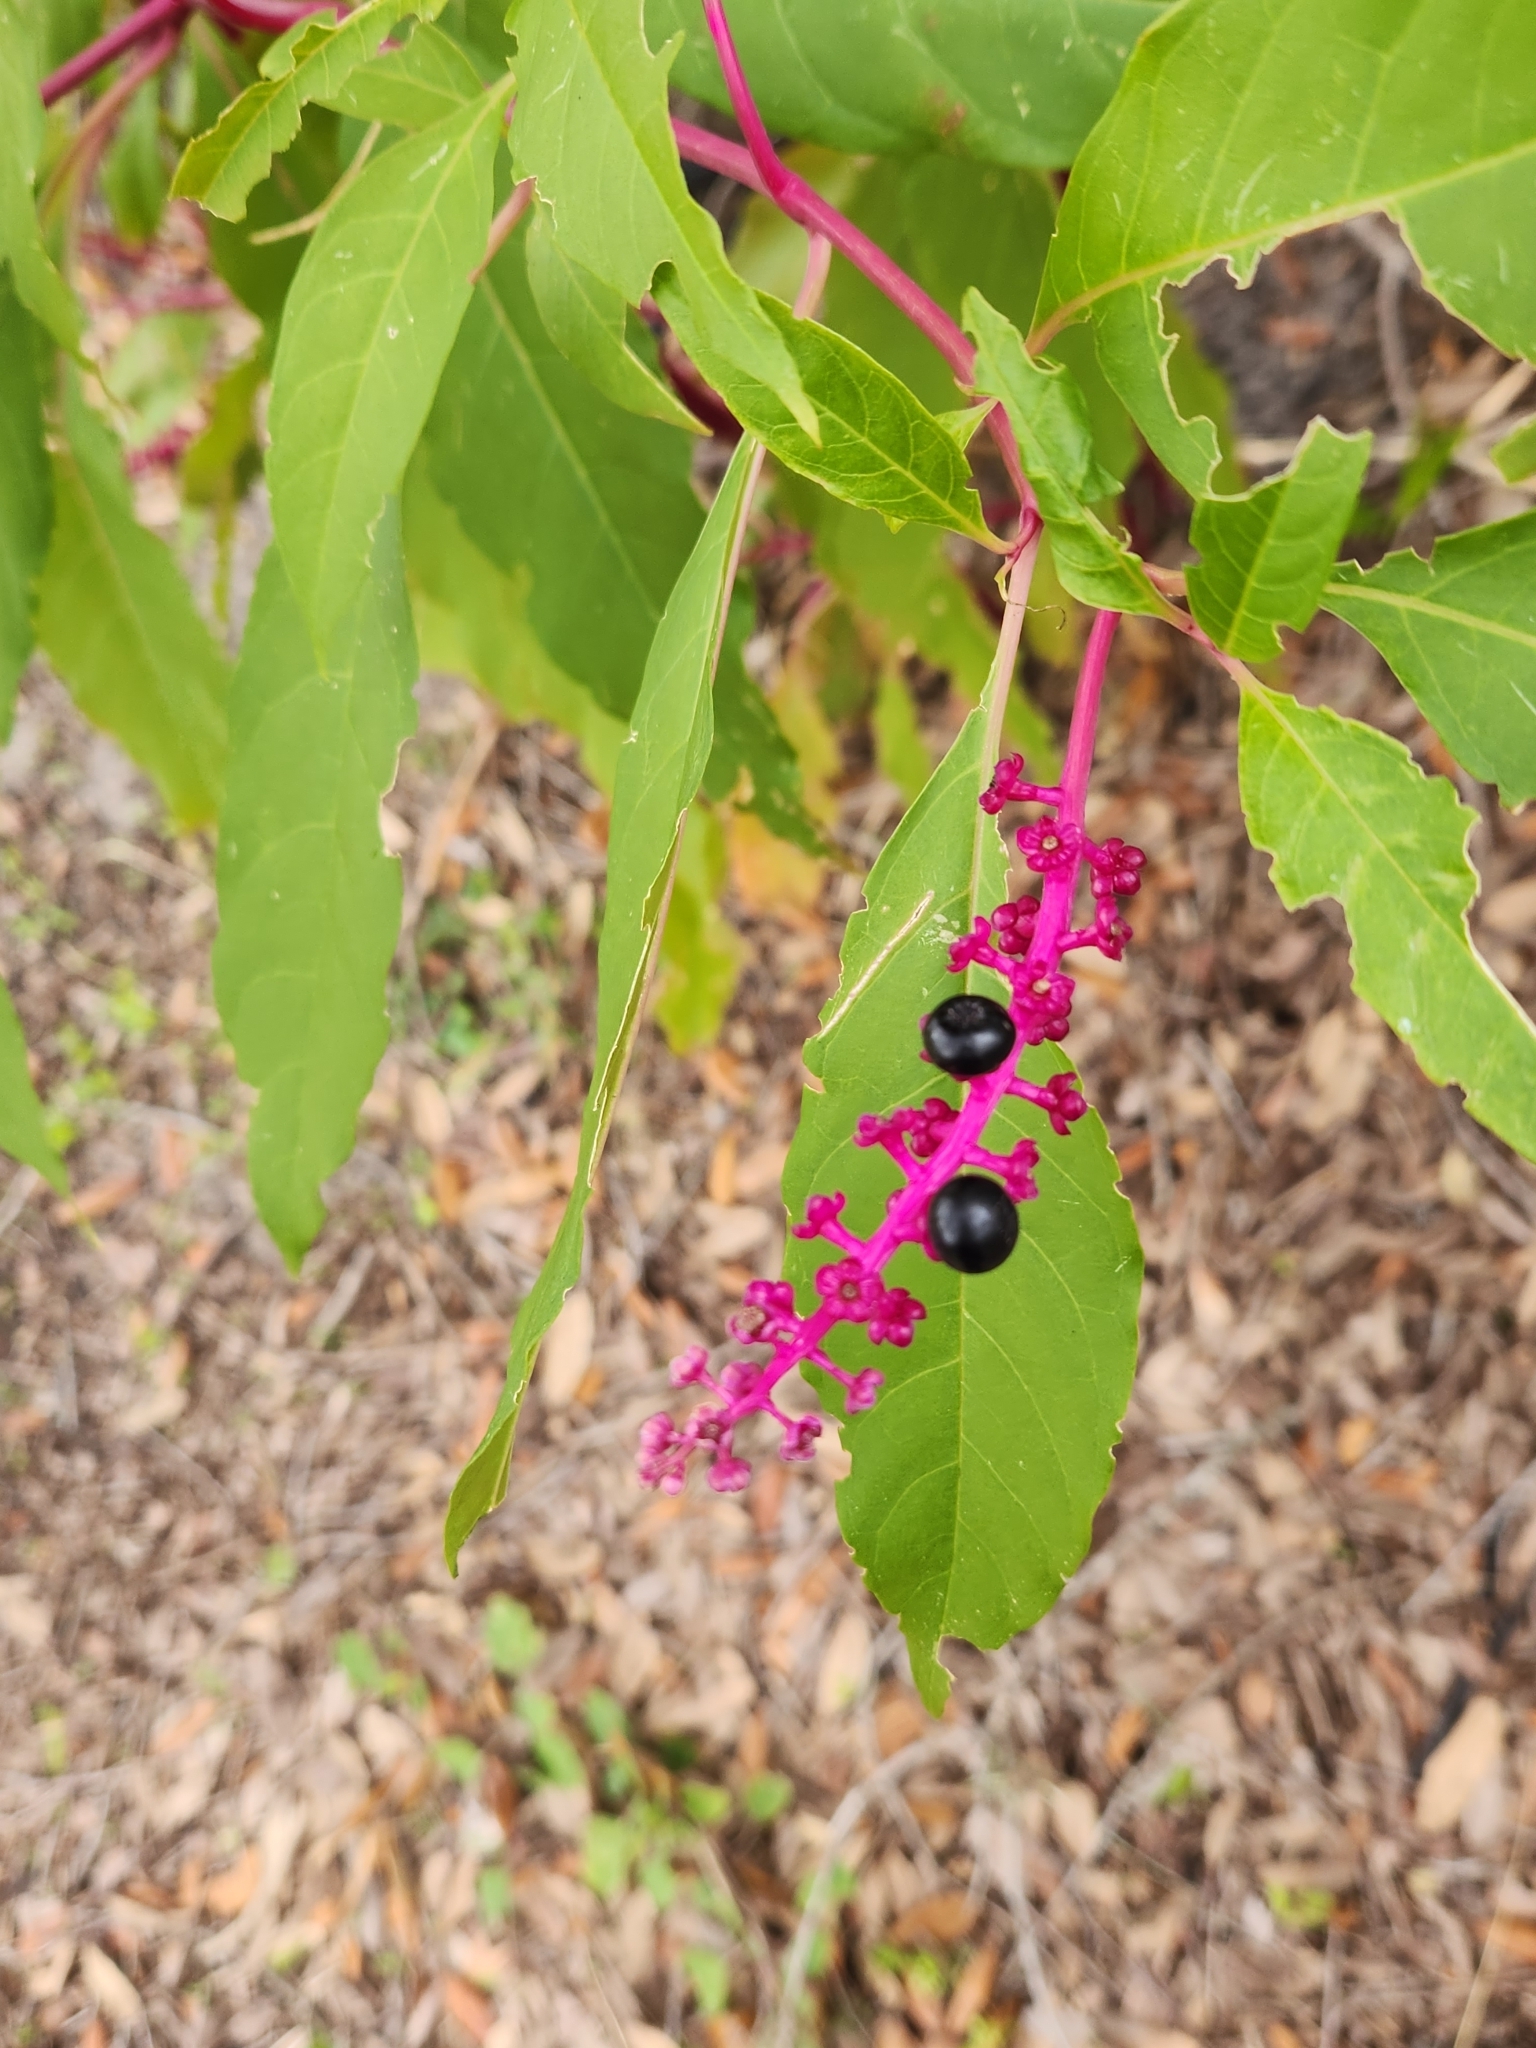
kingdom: Plantae
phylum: Tracheophyta
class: Magnoliopsida
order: Caryophyllales
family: Phytolaccaceae
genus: Phytolacca
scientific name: Phytolacca americana
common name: American pokeweed
